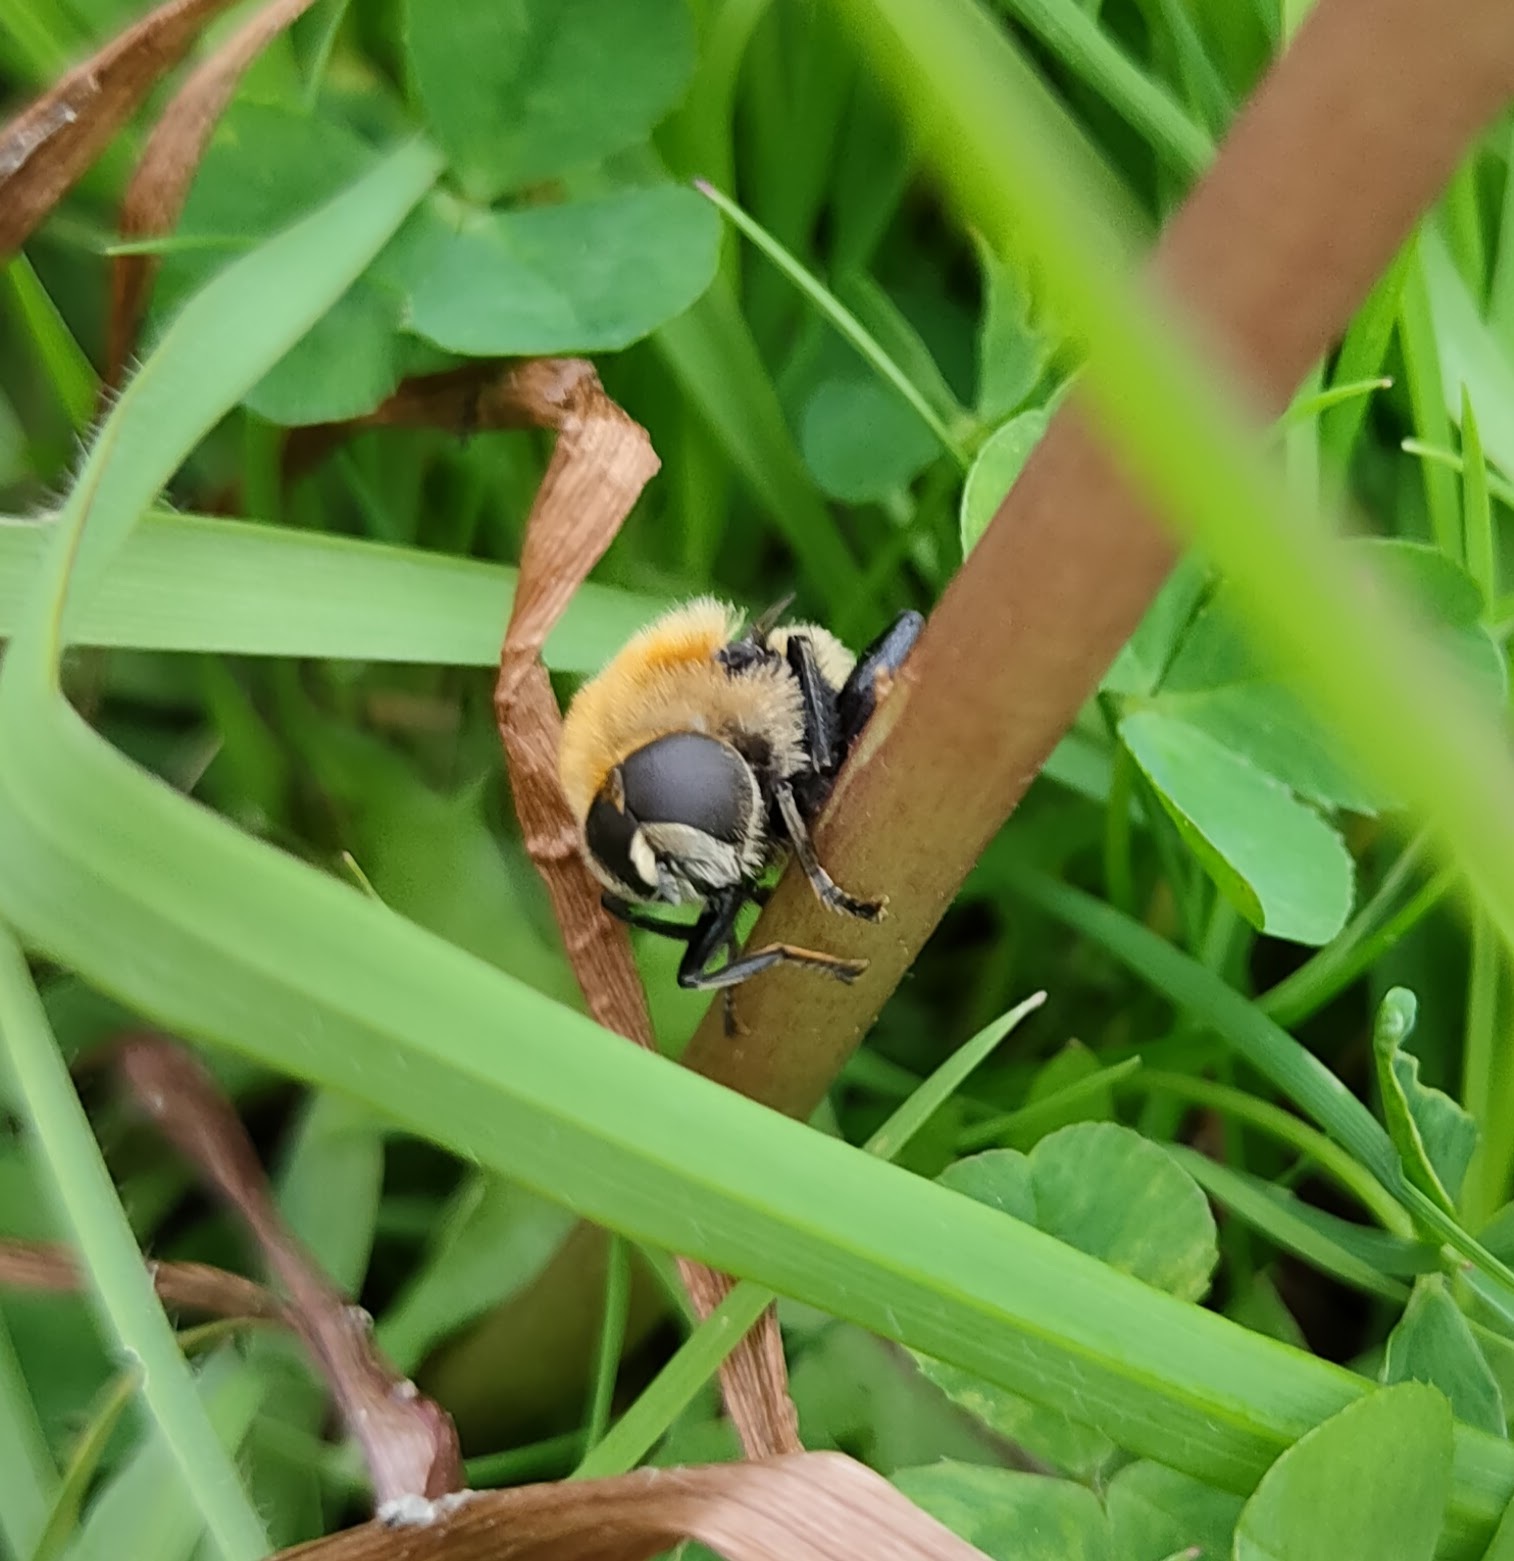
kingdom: Animalia
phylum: Arthropoda
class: Insecta
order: Diptera
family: Syrphidae
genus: Merodon
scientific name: Merodon equestris
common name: Greater bulb-fly
